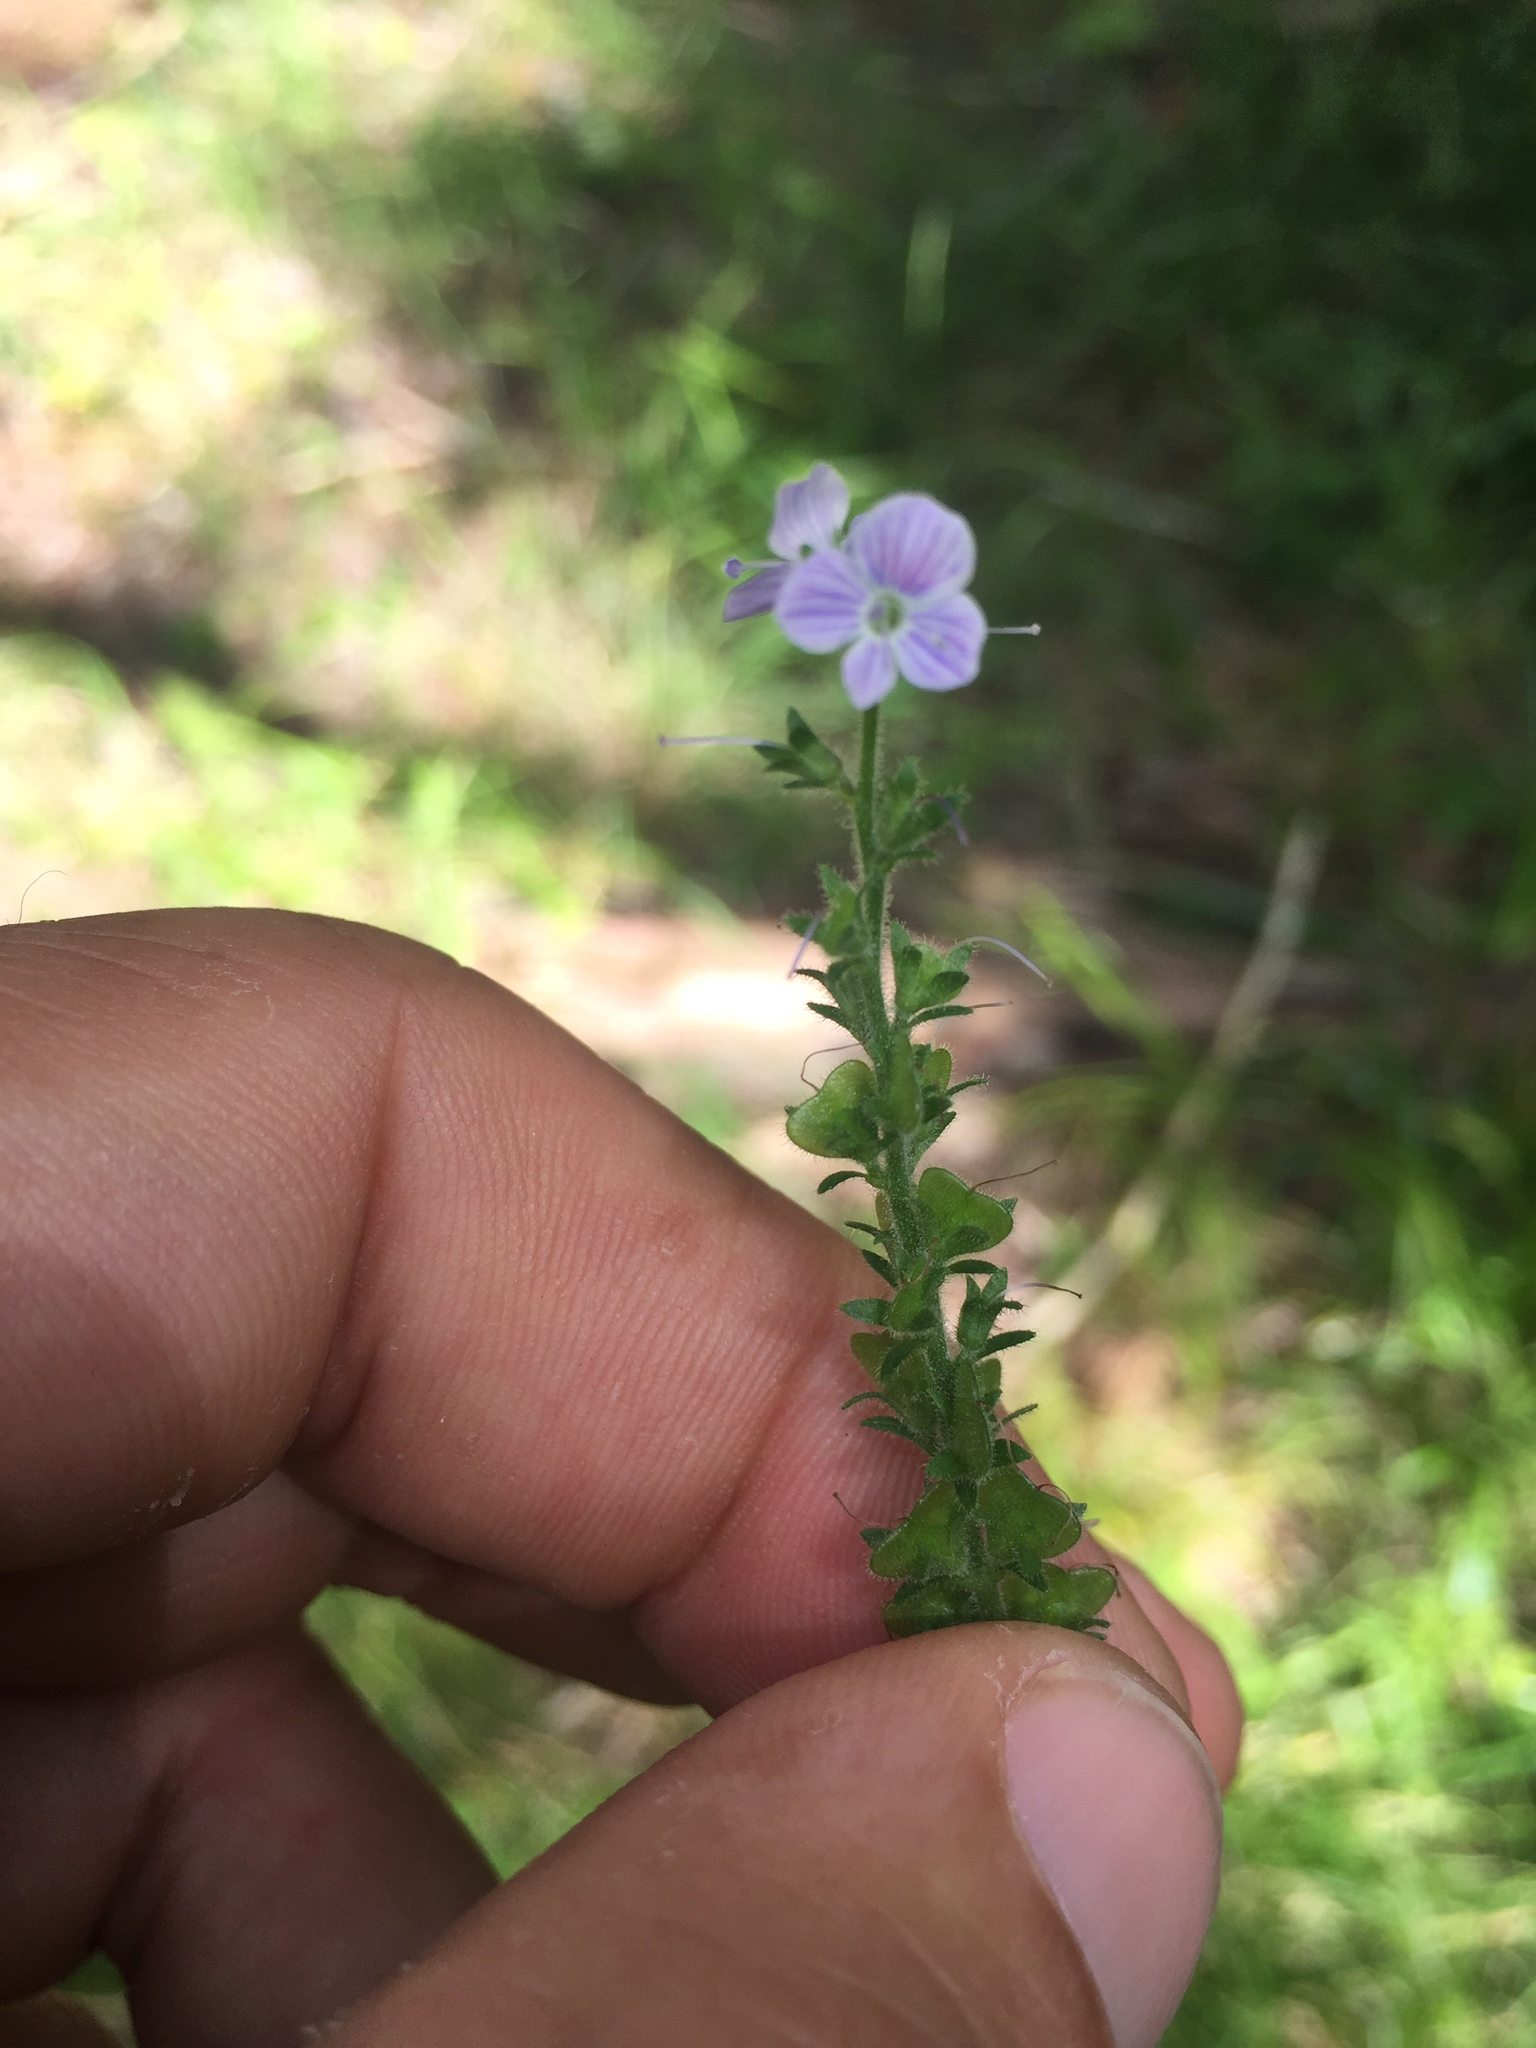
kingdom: Plantae
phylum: Tracheophyta
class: Magnoliopsida
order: Lamiales
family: Plantaginaceae
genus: Veronica
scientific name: Veronica officinalis
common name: Common speedwell
